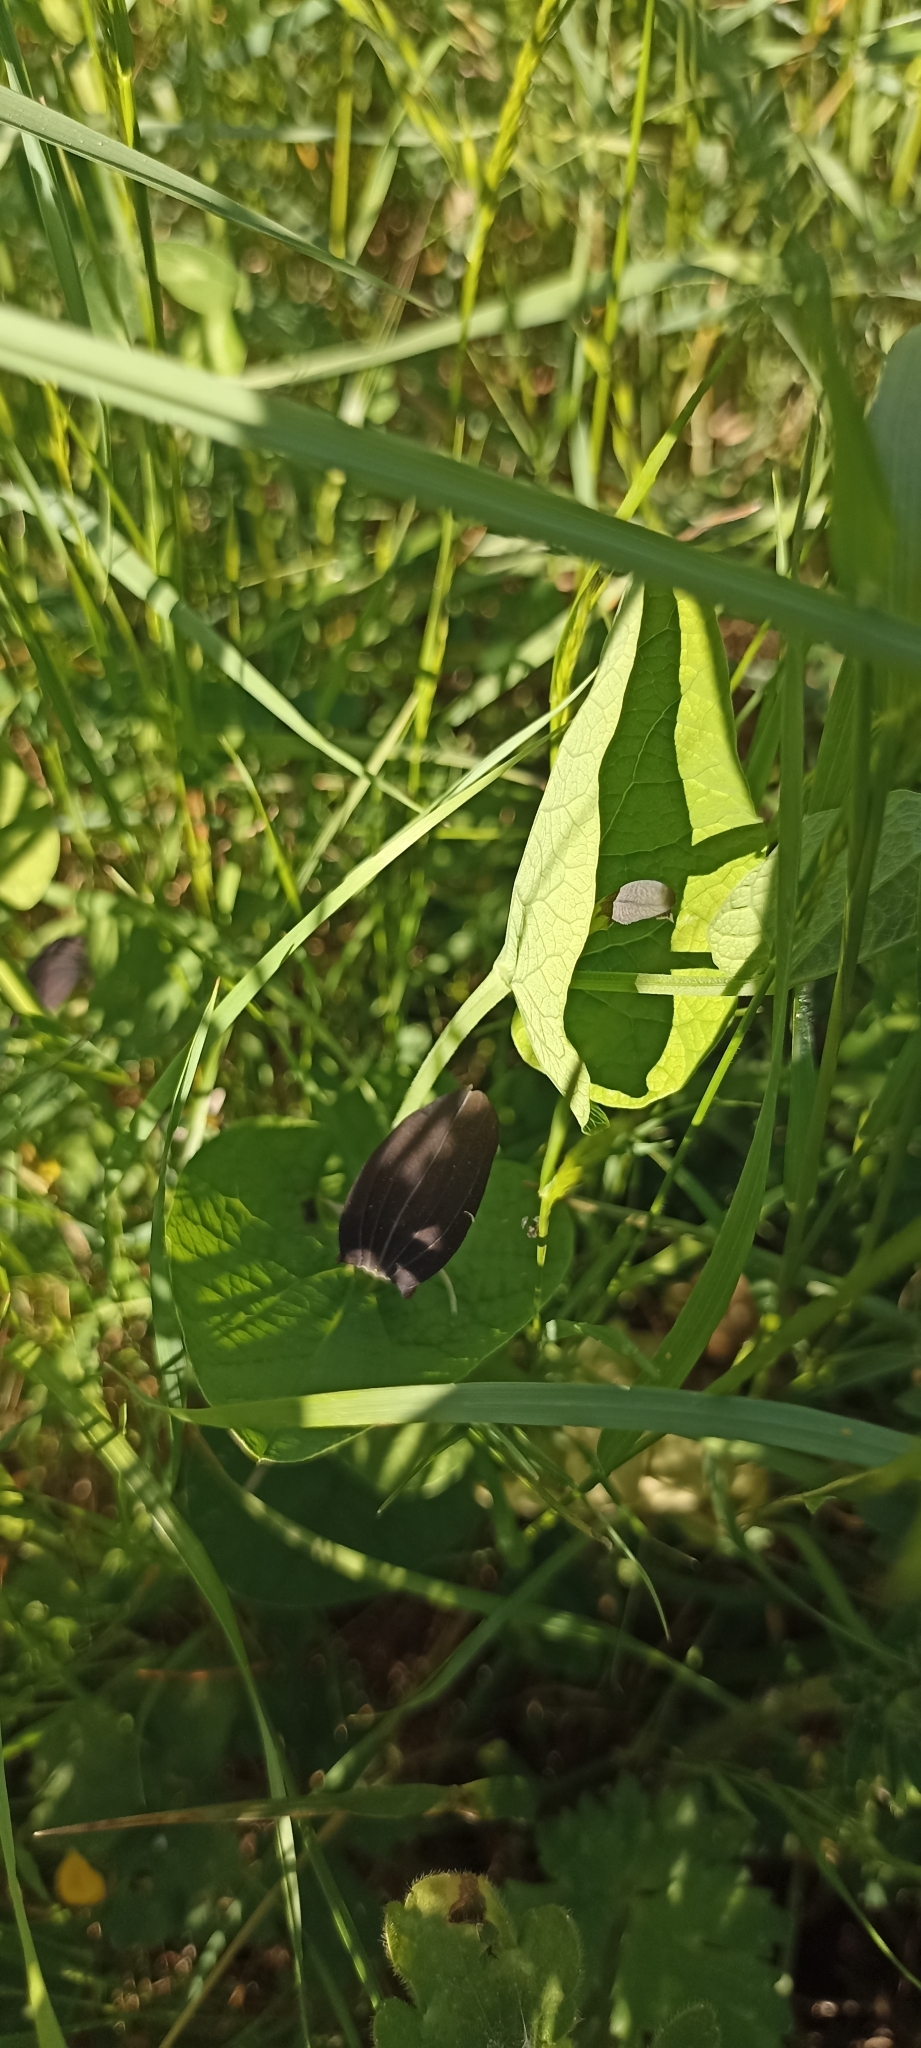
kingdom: Plantae
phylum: Tracheophyta
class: Magnoliopsida
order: Piperales
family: Aristolochiaceae
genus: Aristolochia
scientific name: Aristolochia rotunda
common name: Smearwort
